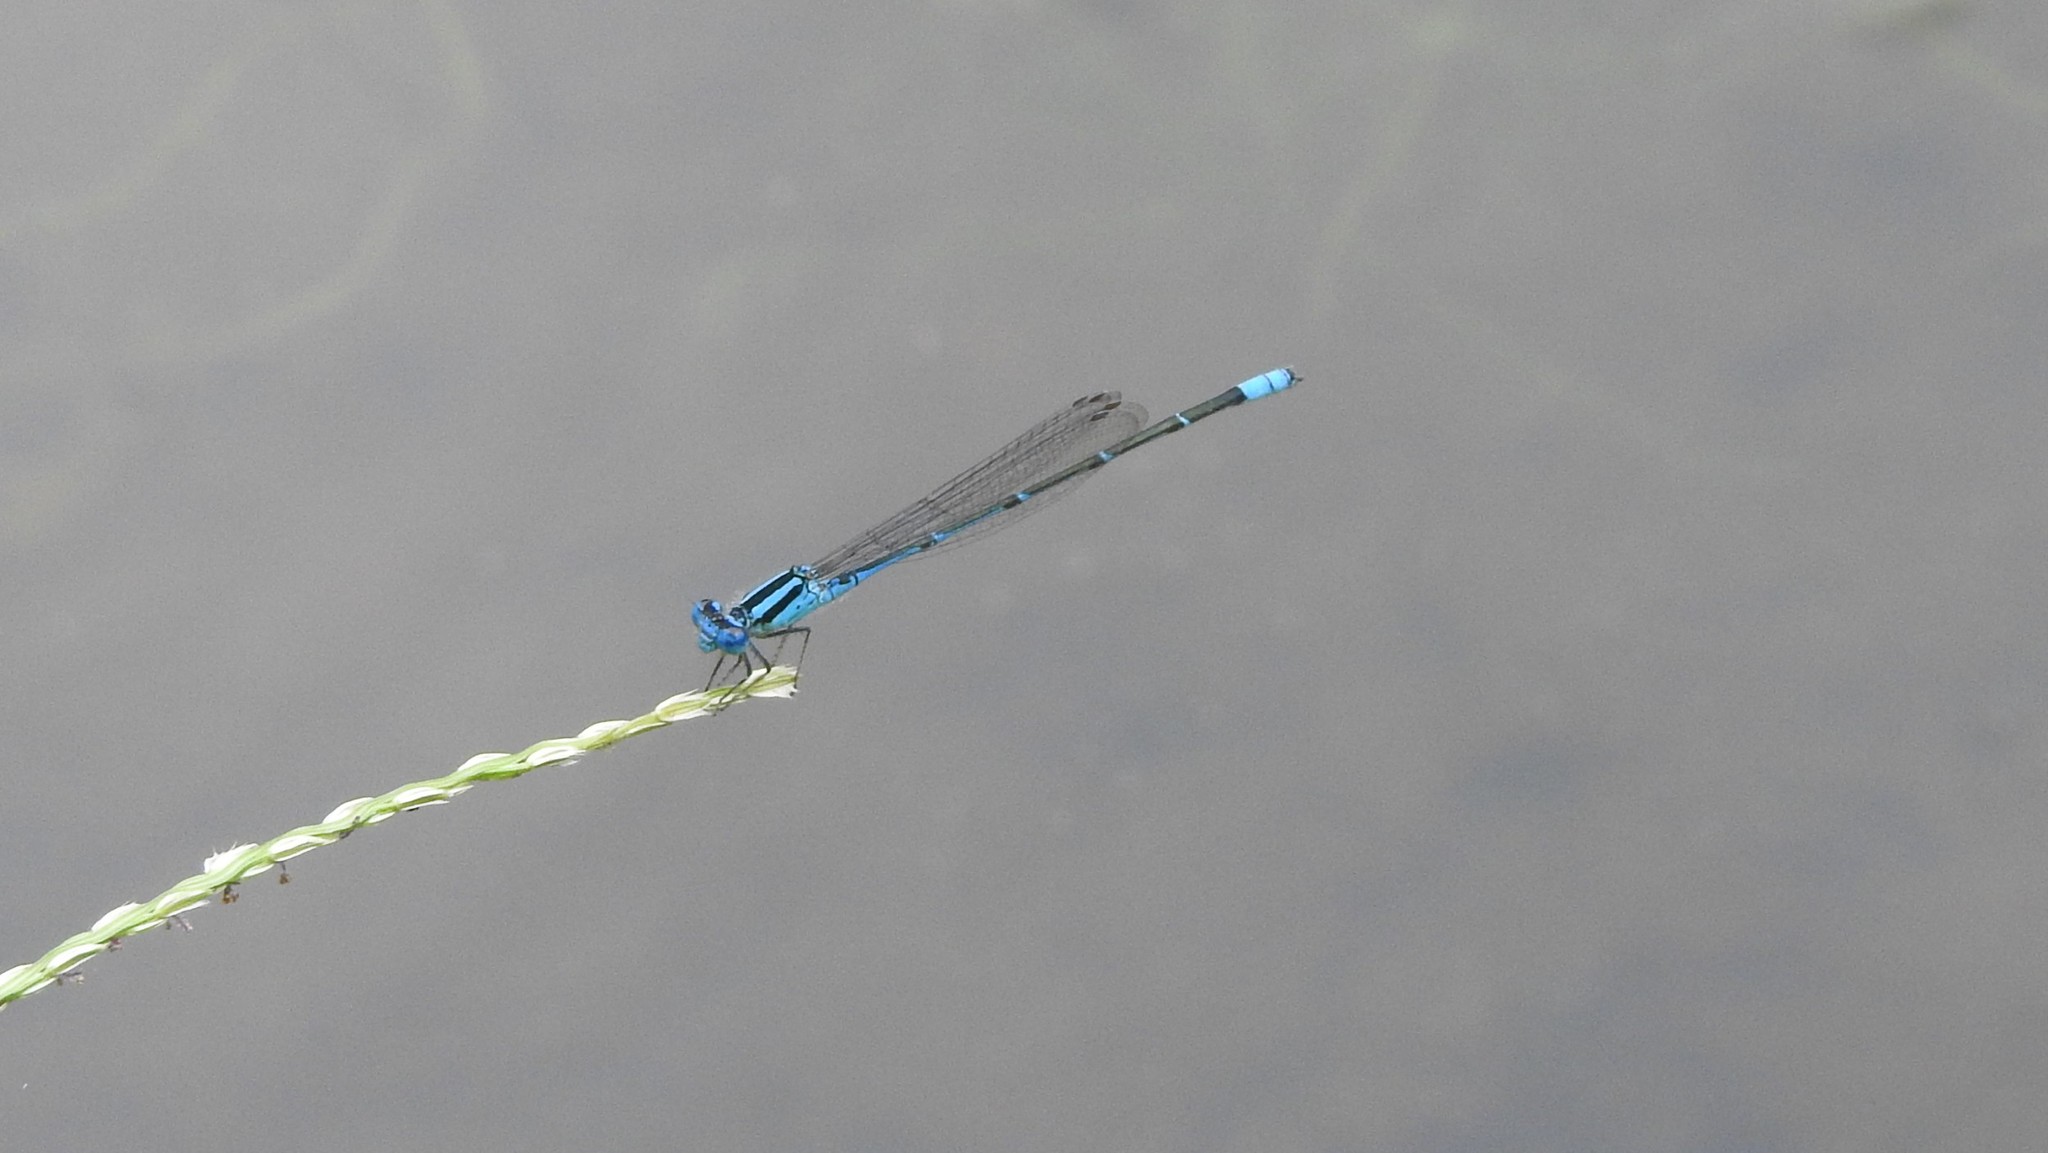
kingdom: Animalia
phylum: Arthropoda
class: Insecta
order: Odonata
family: Coenagrionidae
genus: Pseudagrion
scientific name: Pseudagrion microcephalum
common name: Blue riverdamsel
